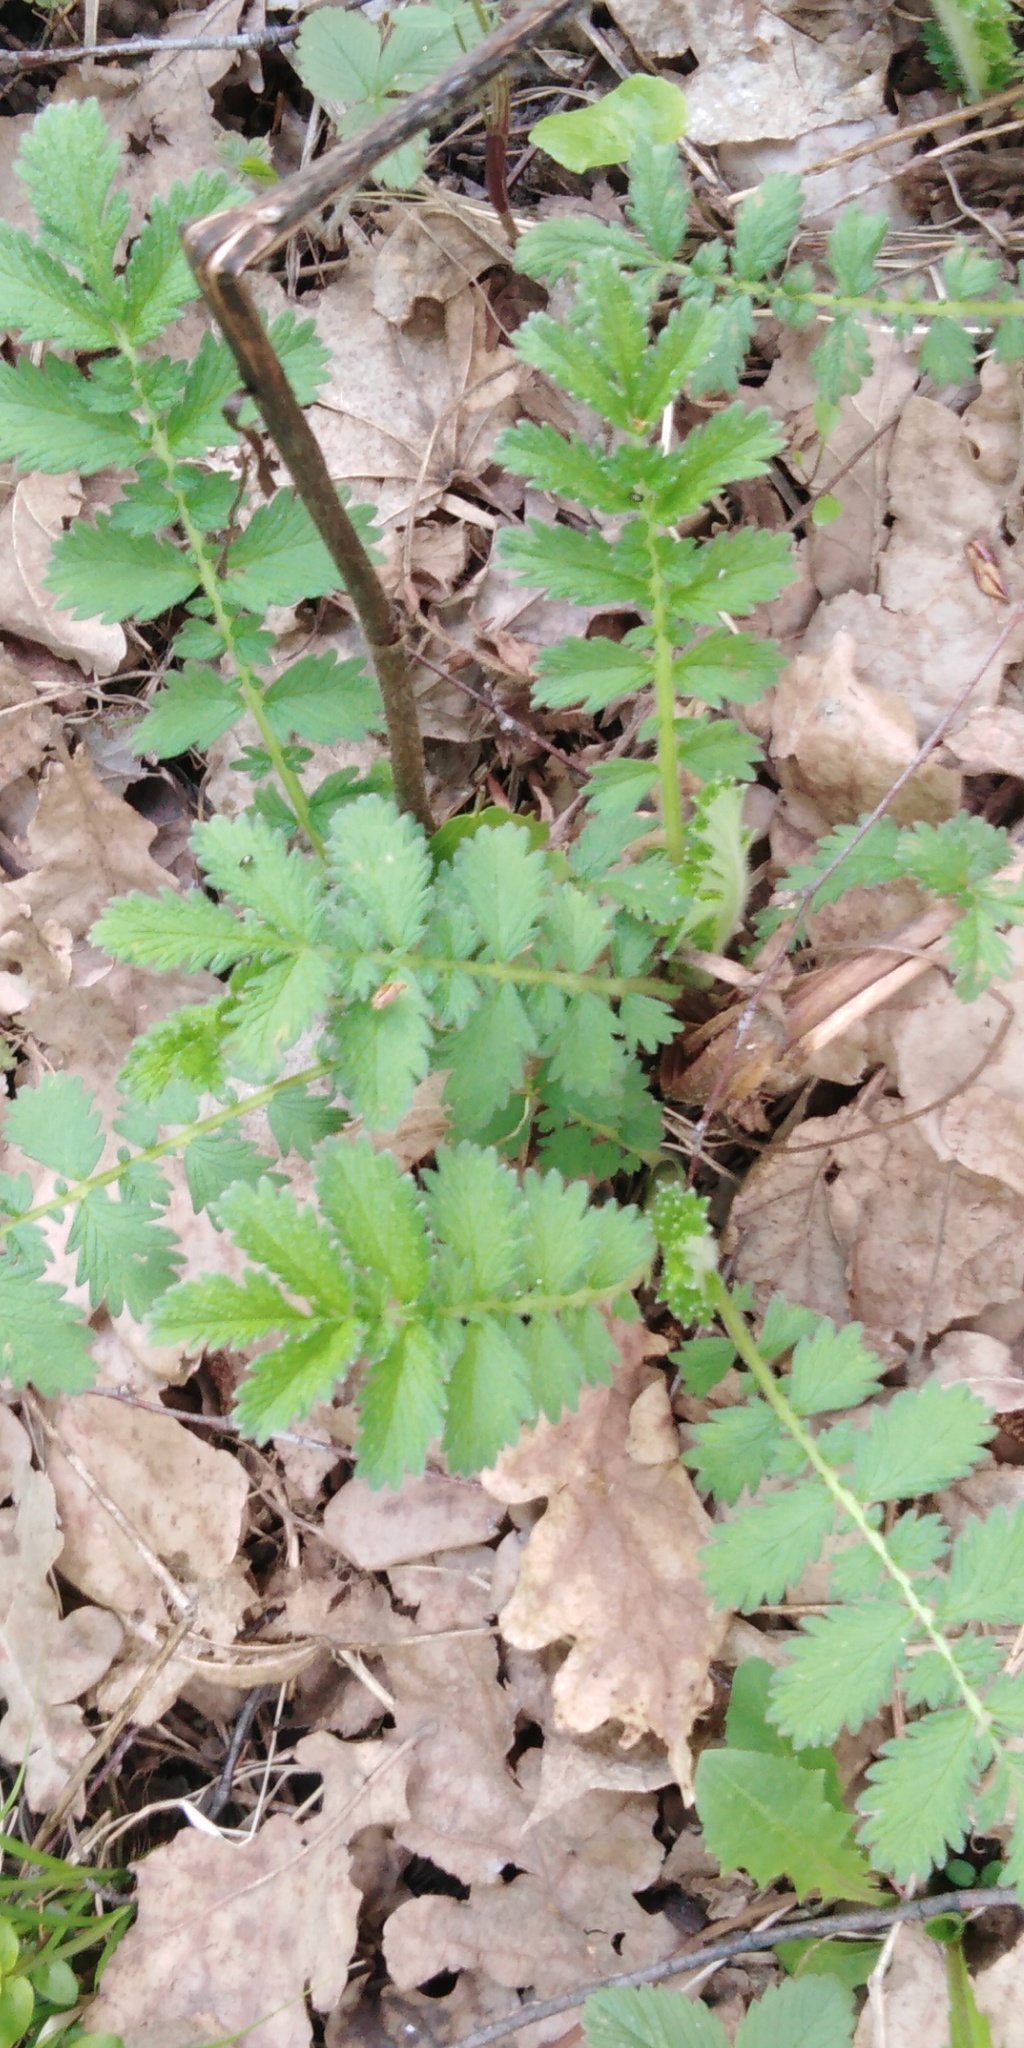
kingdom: Plantae
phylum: Tracheophyta
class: Magnoliopsida
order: Rosales
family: Rosaceae
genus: Agrimonia
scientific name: Agrimonia eupatoria
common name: Agrimony
